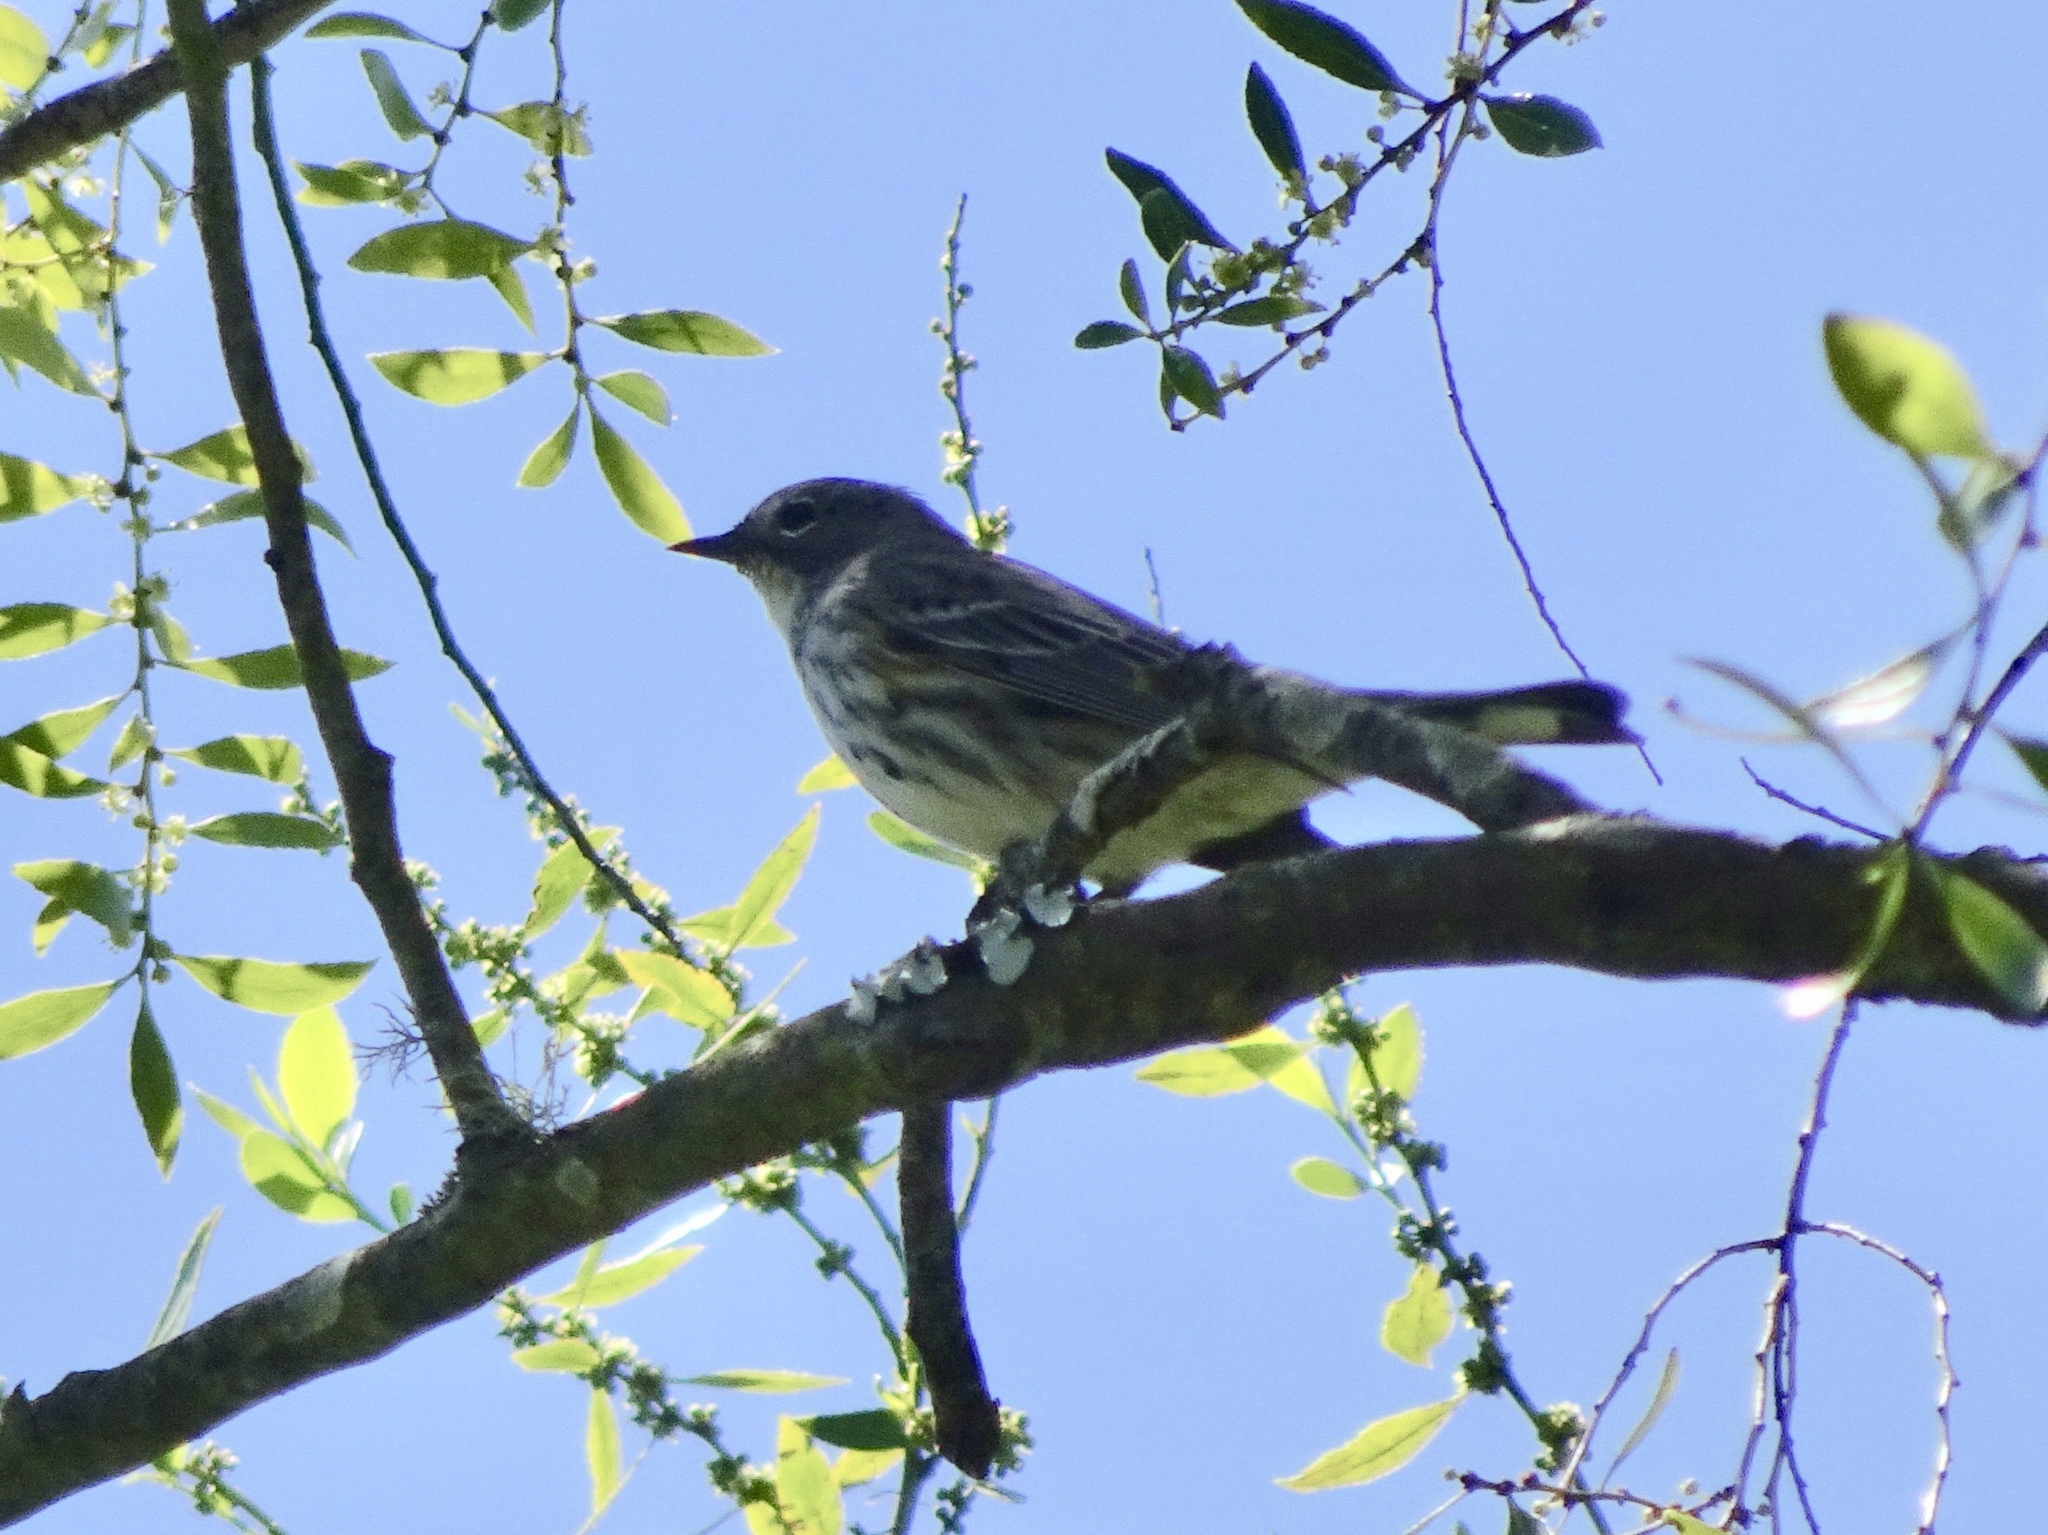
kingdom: Animalia
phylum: Chordata
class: Aves
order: Passeriformes
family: Parulidae
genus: Setophaga
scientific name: Setophaga auduboni
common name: Audubon's warbler
